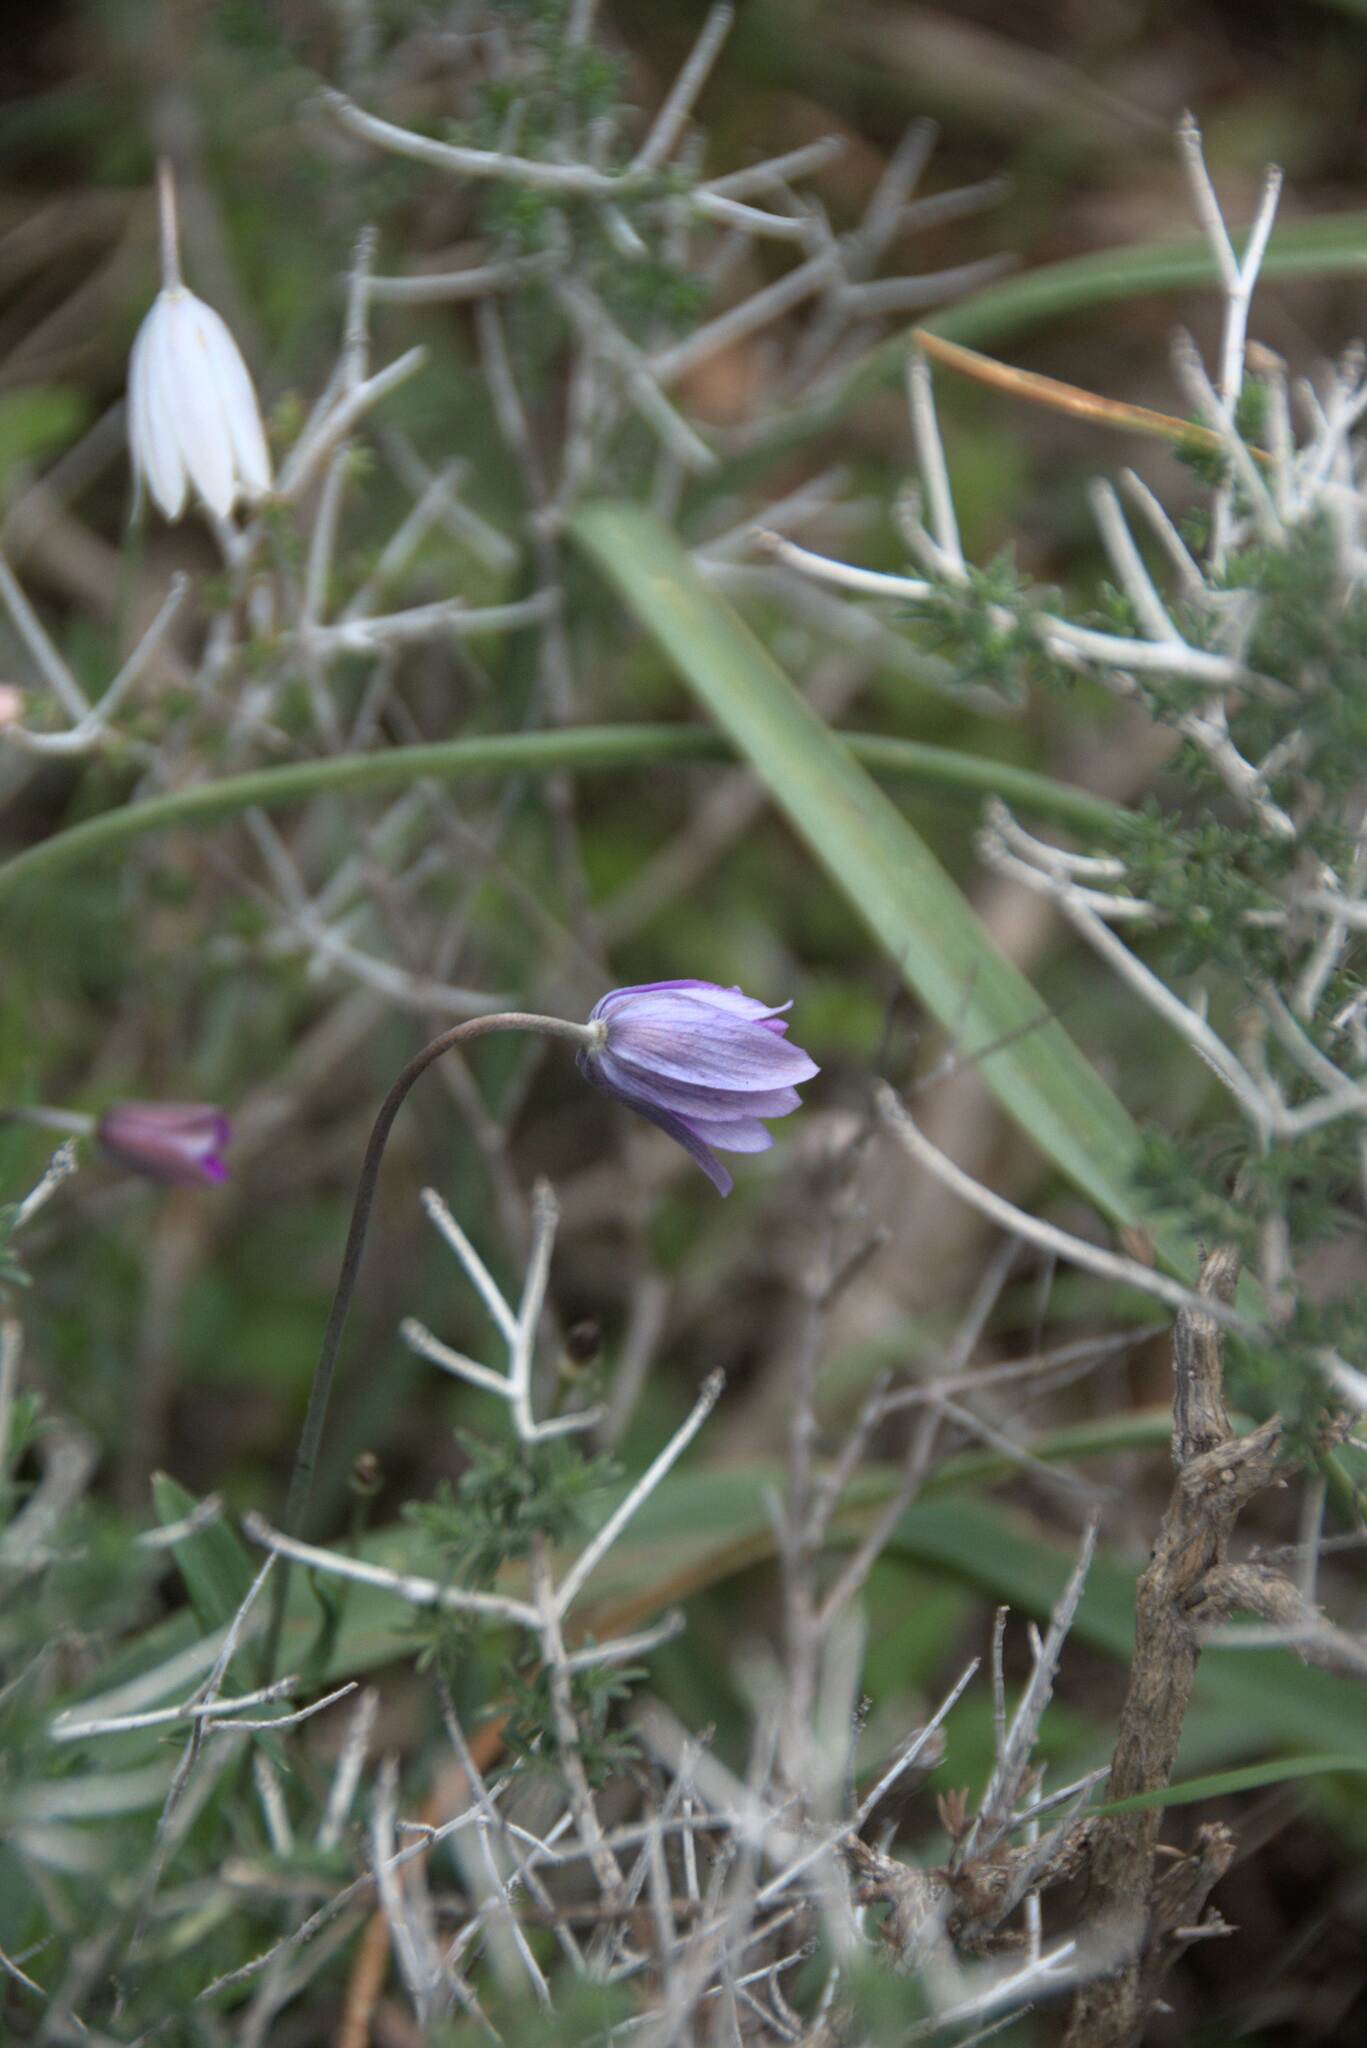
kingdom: Plantae
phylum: Tracheophyta
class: Magnoliopsida
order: Ranunculales
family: Ranunculaceae
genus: Anemone
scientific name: Anemone hortensis
